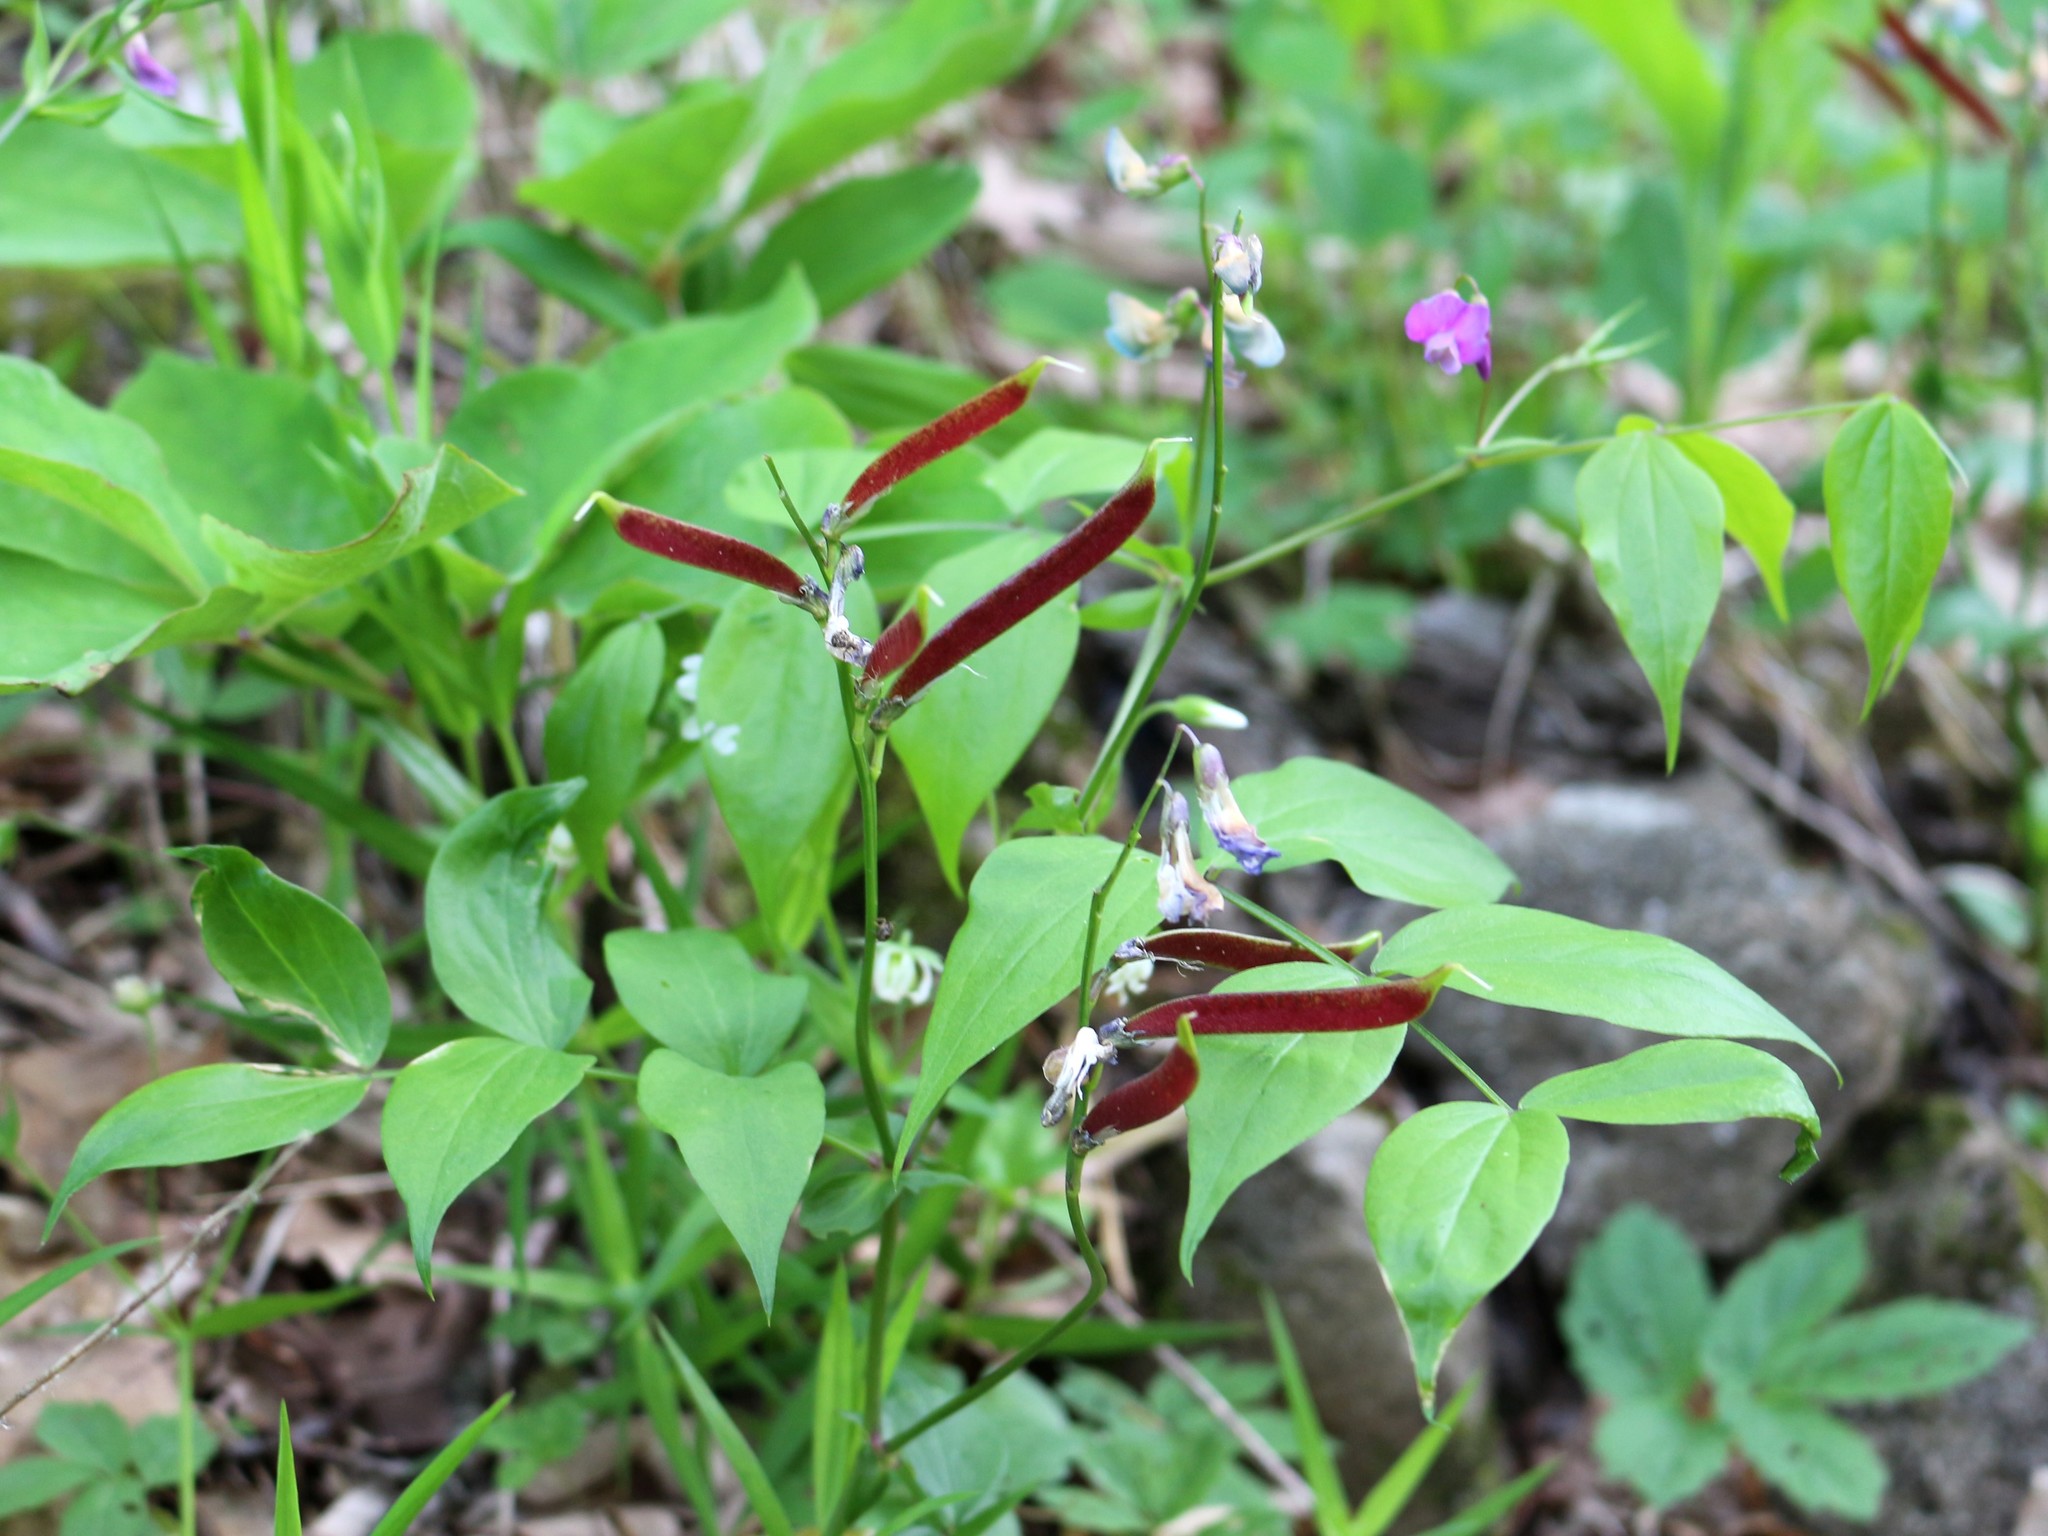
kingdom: Plantae
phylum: Tracheophyta
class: Magnoliopsida
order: Fabales
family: Fabaceae
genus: Lathyrus
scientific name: Lathyrus vernus
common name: Spring pea
